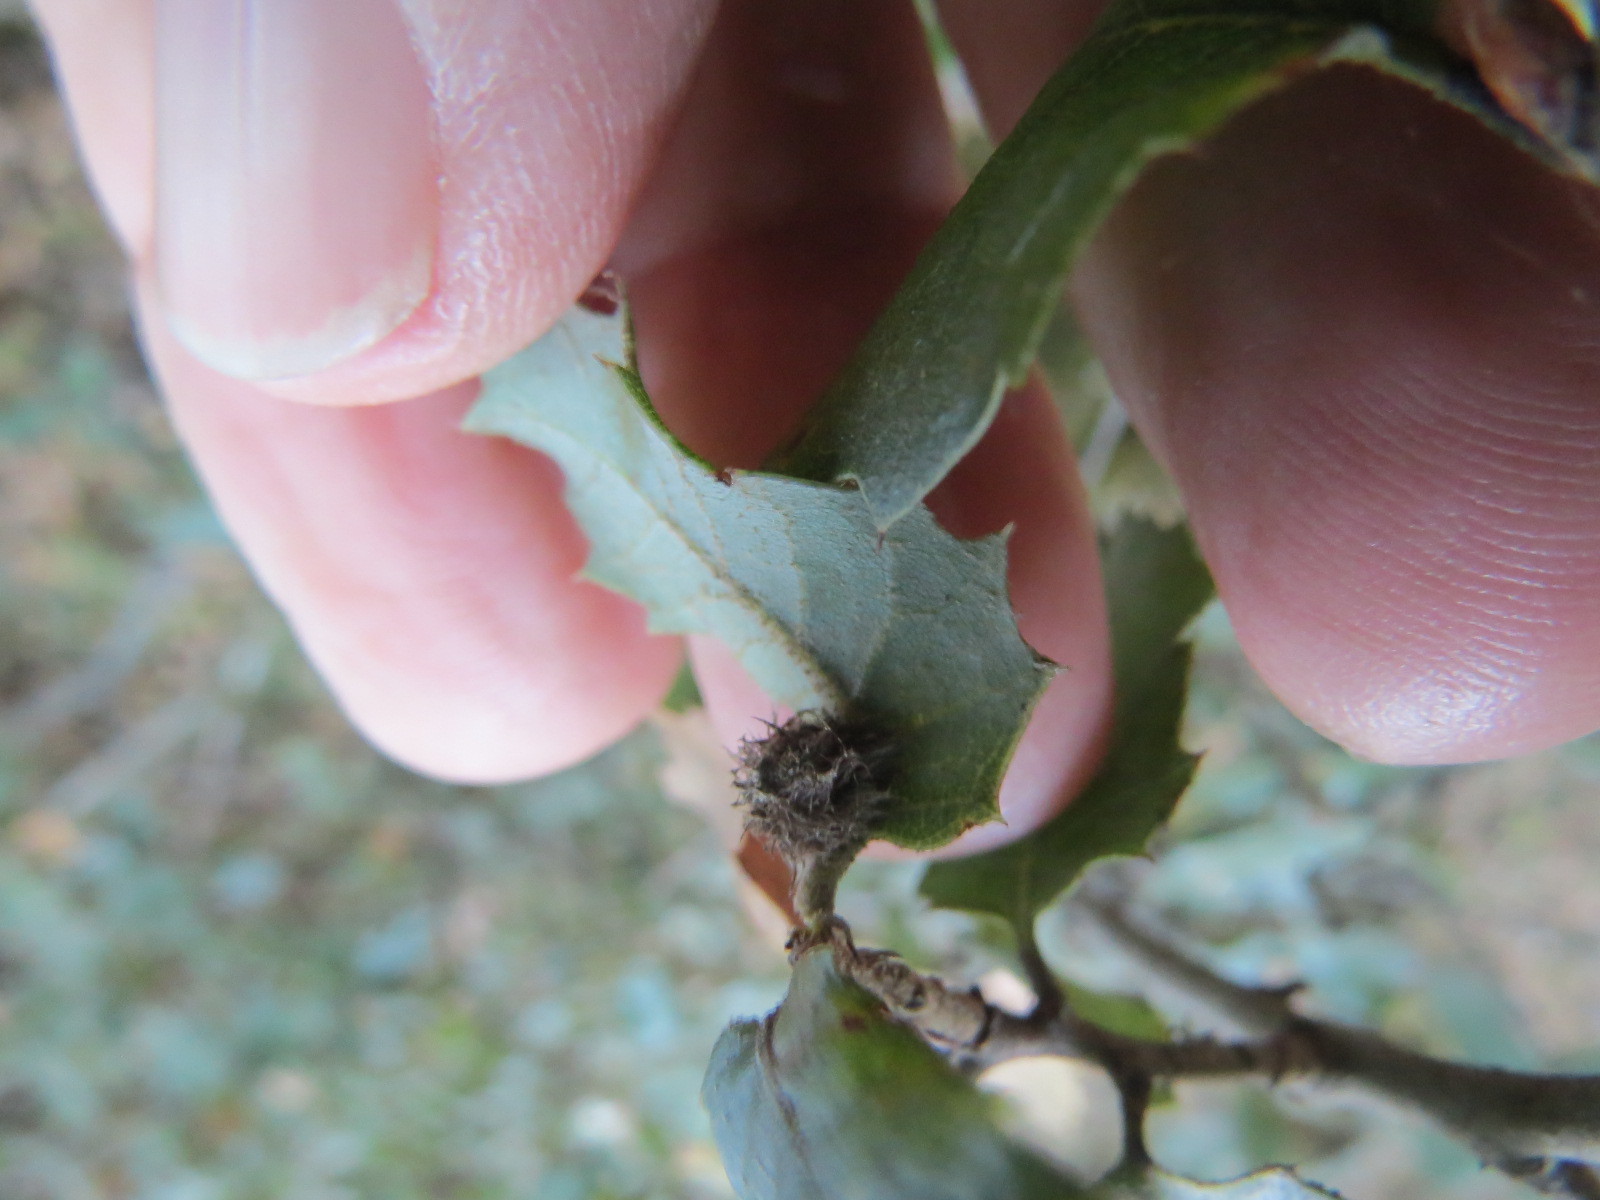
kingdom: Animalia
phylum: Arthropoda
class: Insecta
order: Hymenoptera
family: Cynipidae
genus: Disholandricus
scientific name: Disholandricus
